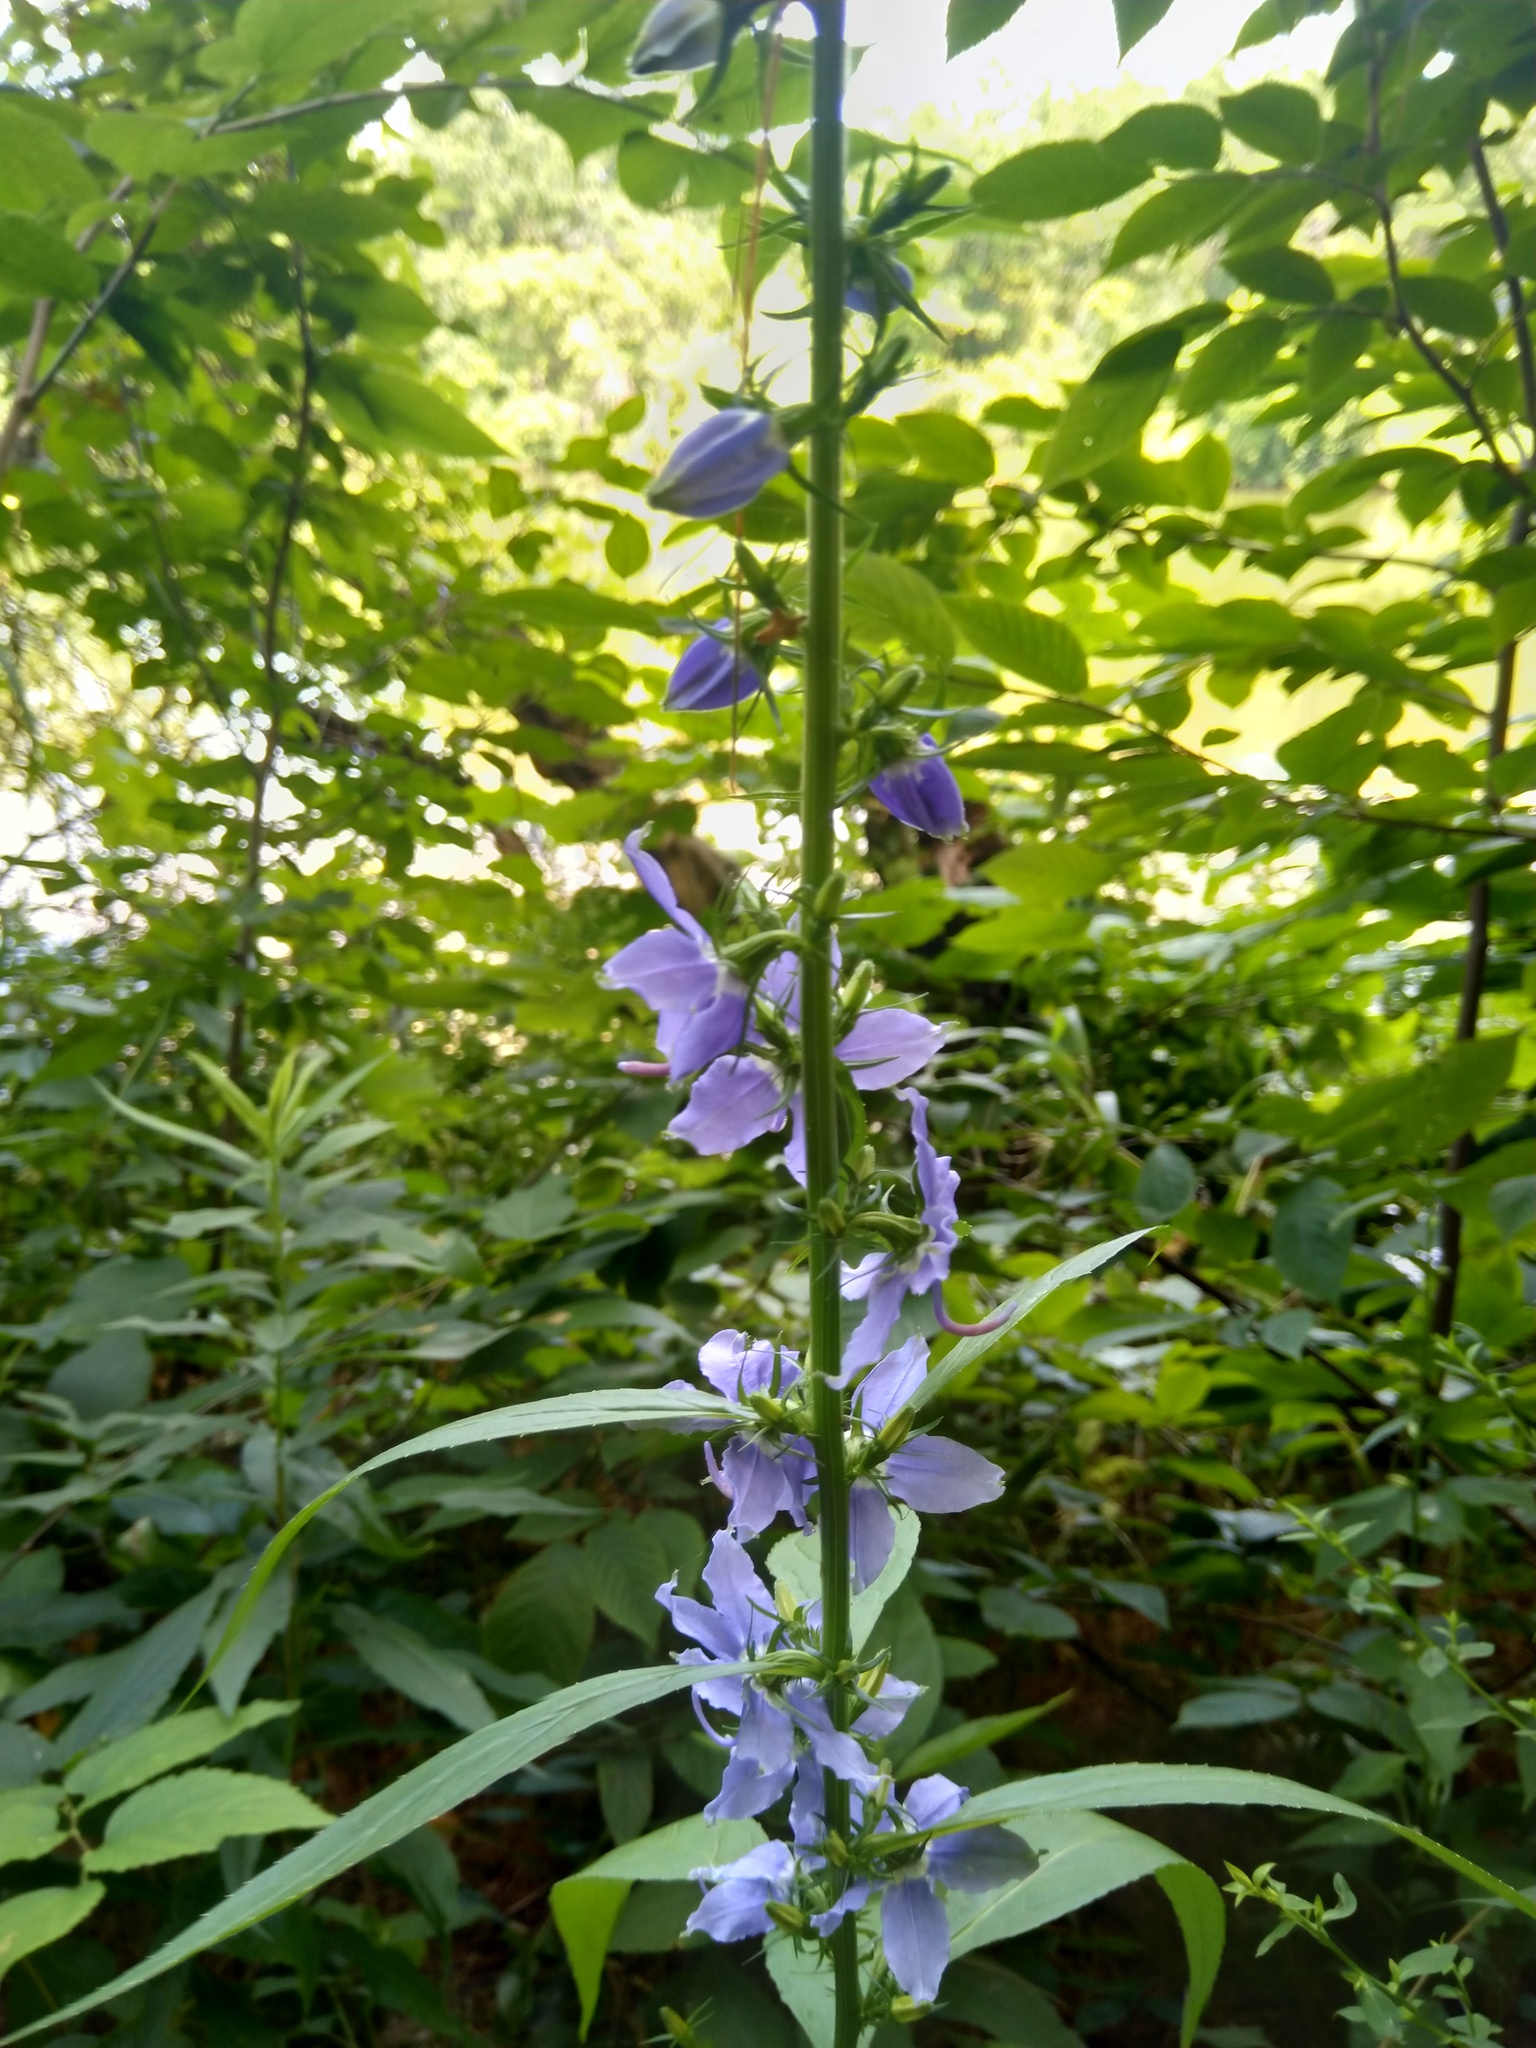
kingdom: Plantae
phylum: Tracheophyta
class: Magnoliopsida
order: Asterales
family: Campanulaceae
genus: Campanulastrum
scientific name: Campanulastrum americanum
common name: American bellflower
